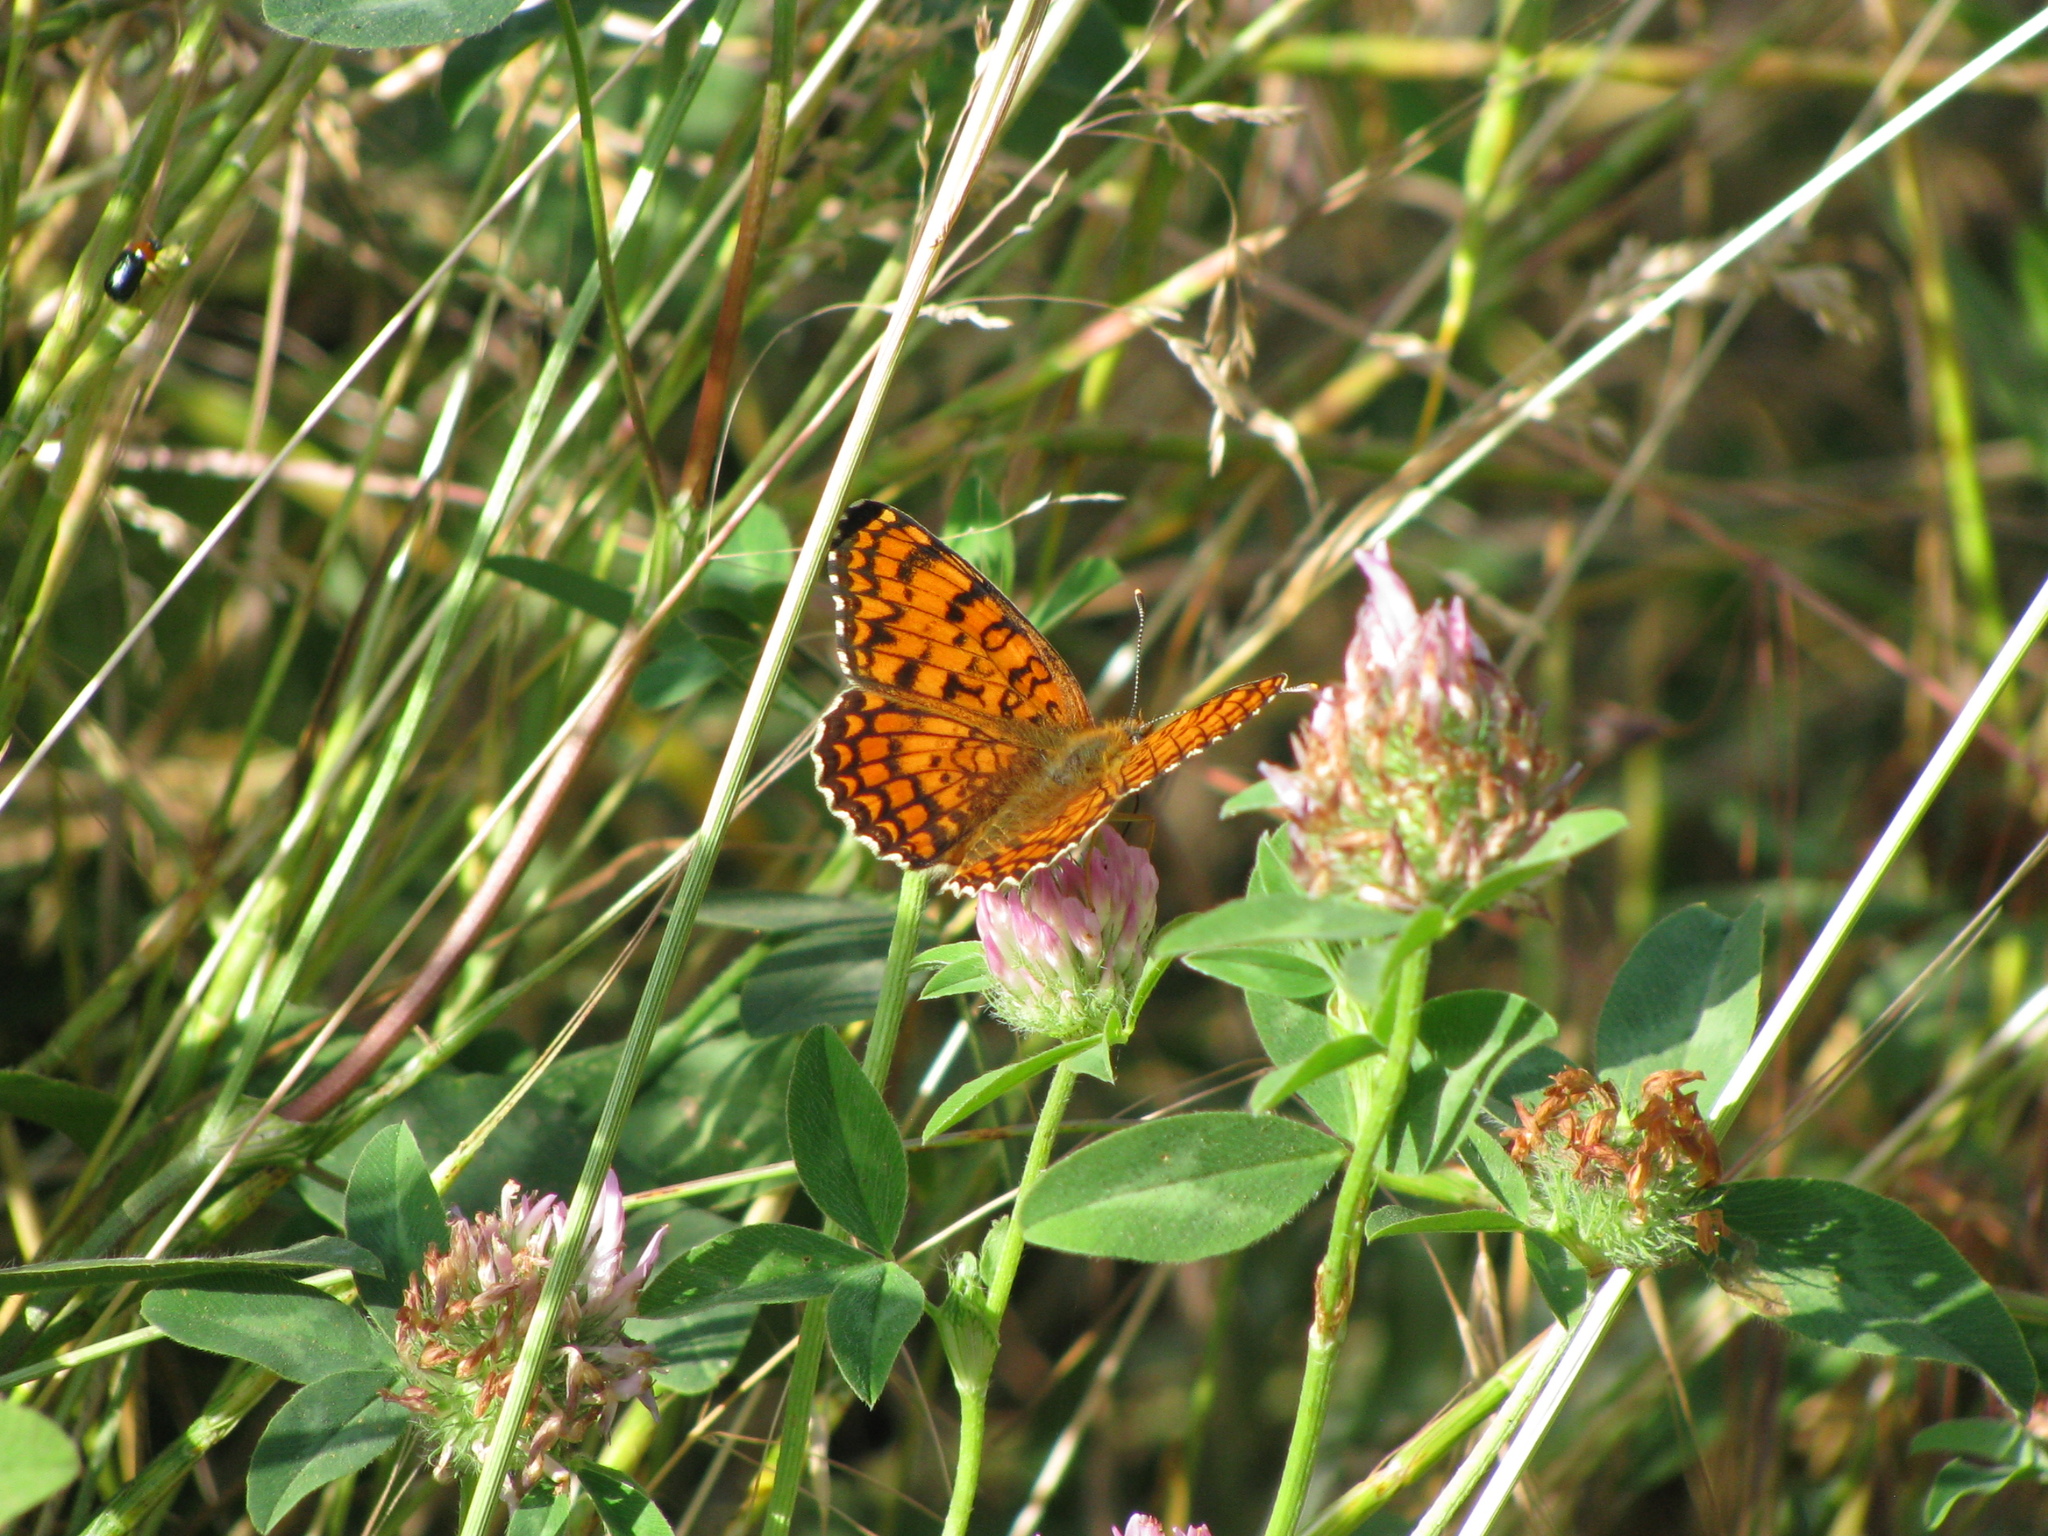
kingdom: Animalia
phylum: Arthropoda
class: Insecta
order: Lepidoptera
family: Nymphalidae
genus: Melitaea
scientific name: Melitaea phoebe
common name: Knapweed fritillary
